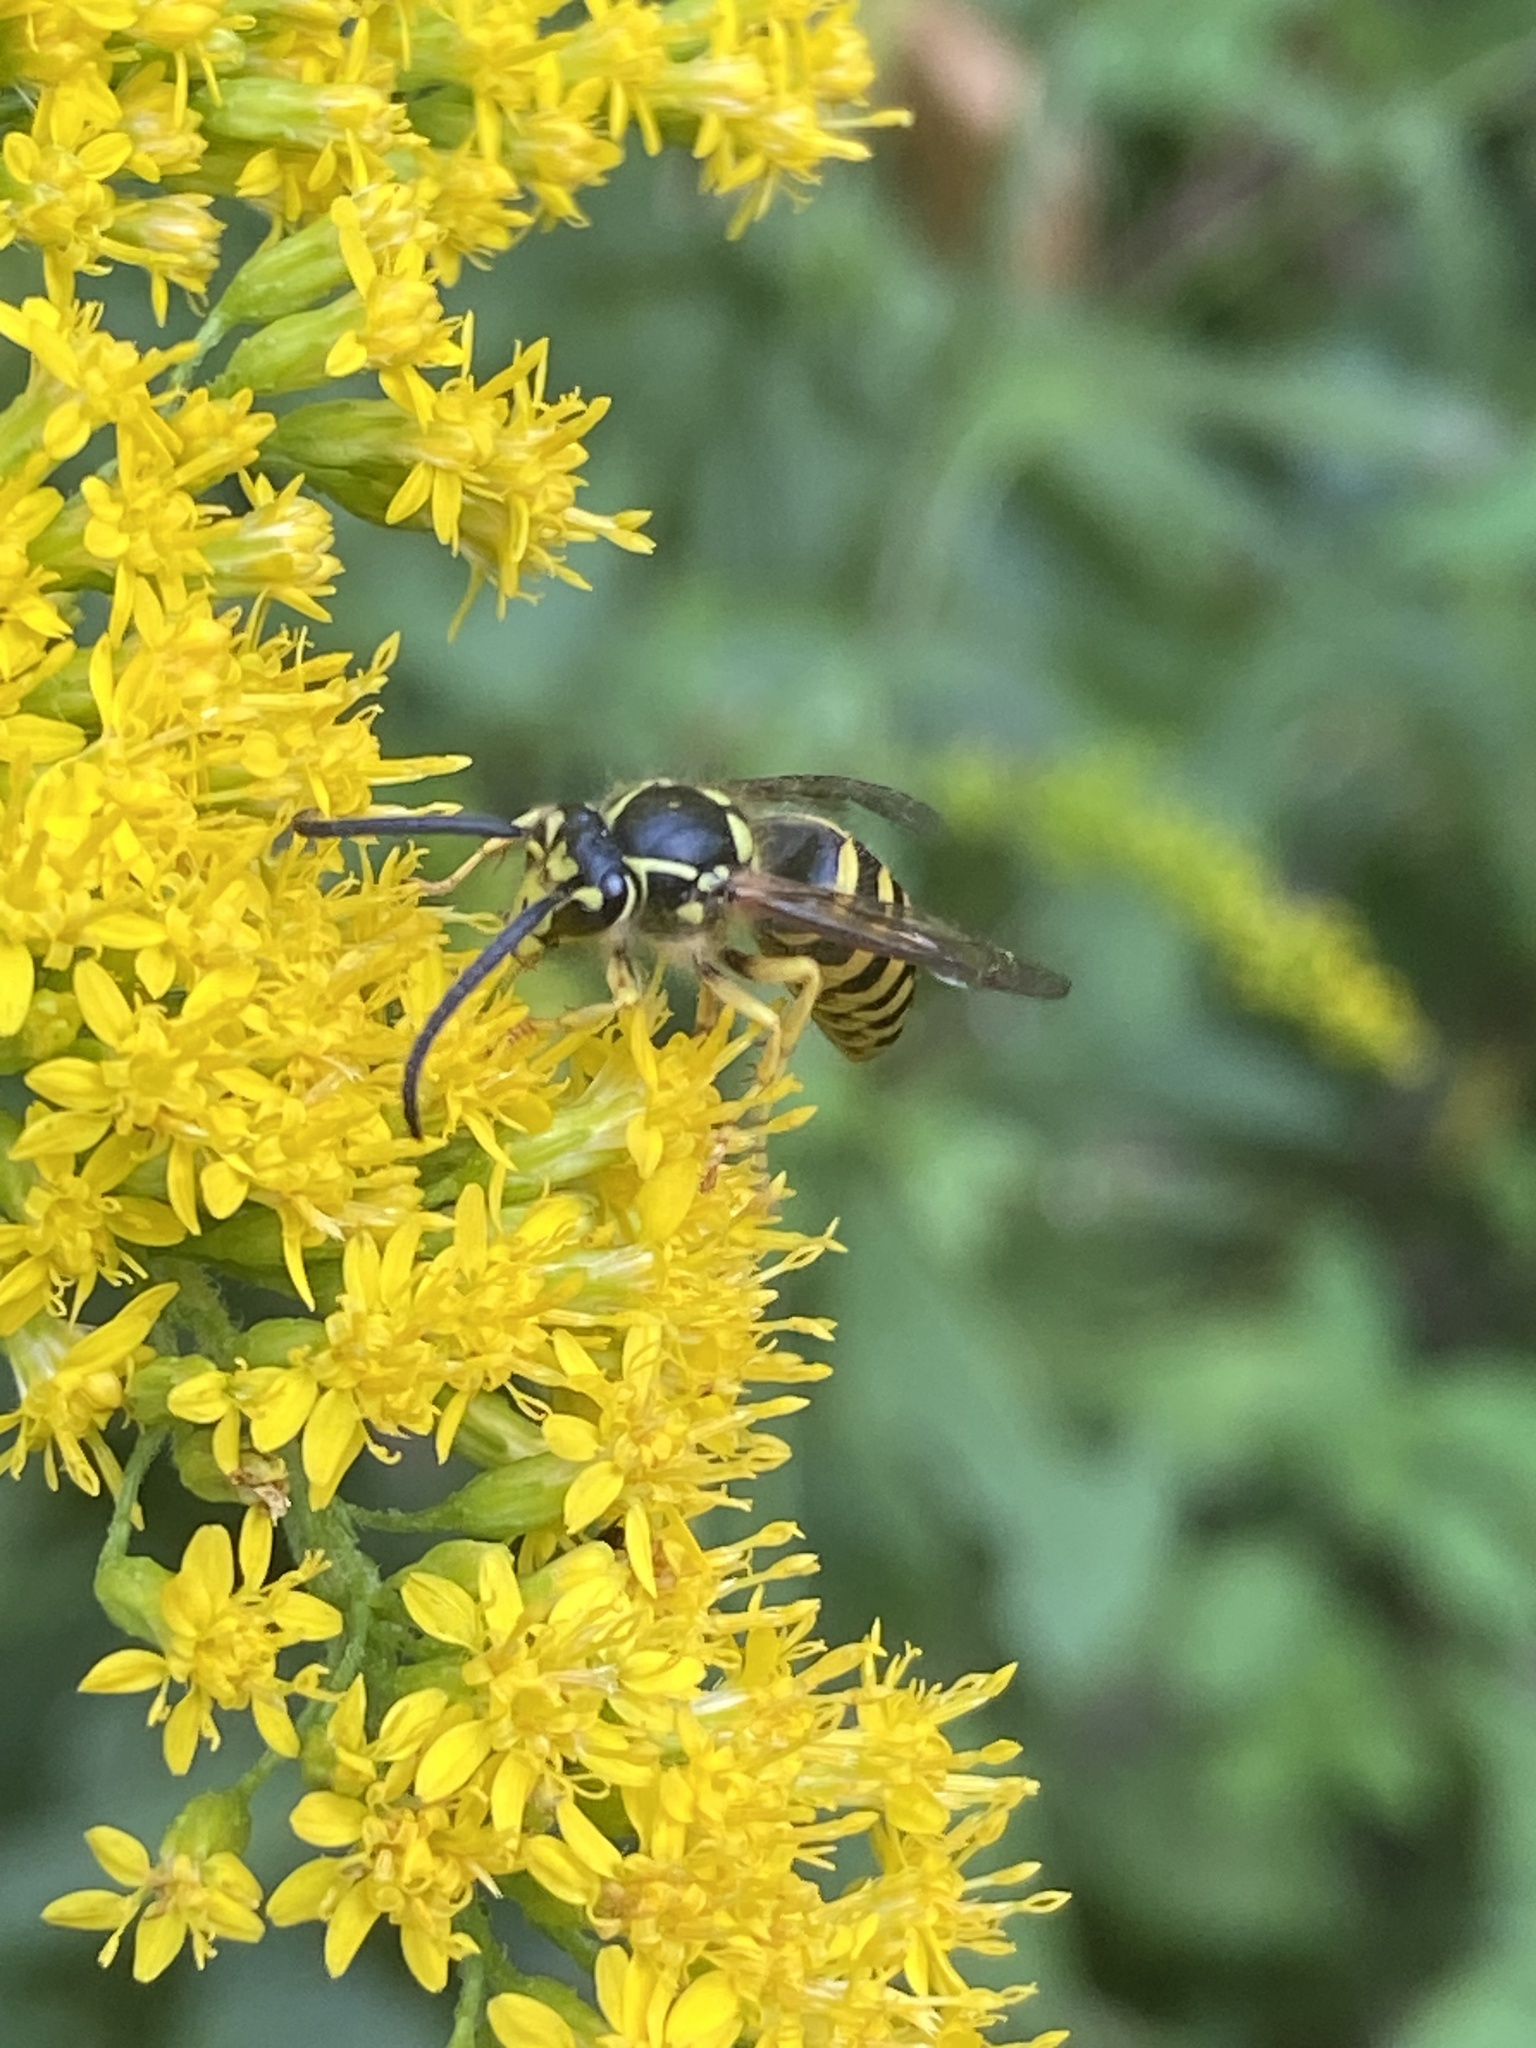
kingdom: Animalia
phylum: Arthropoda
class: Insecta
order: Hymenoptera
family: Vespidae
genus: Dolichovespula
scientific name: Dolichovespula arenaria
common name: Aerial yellowjacket
